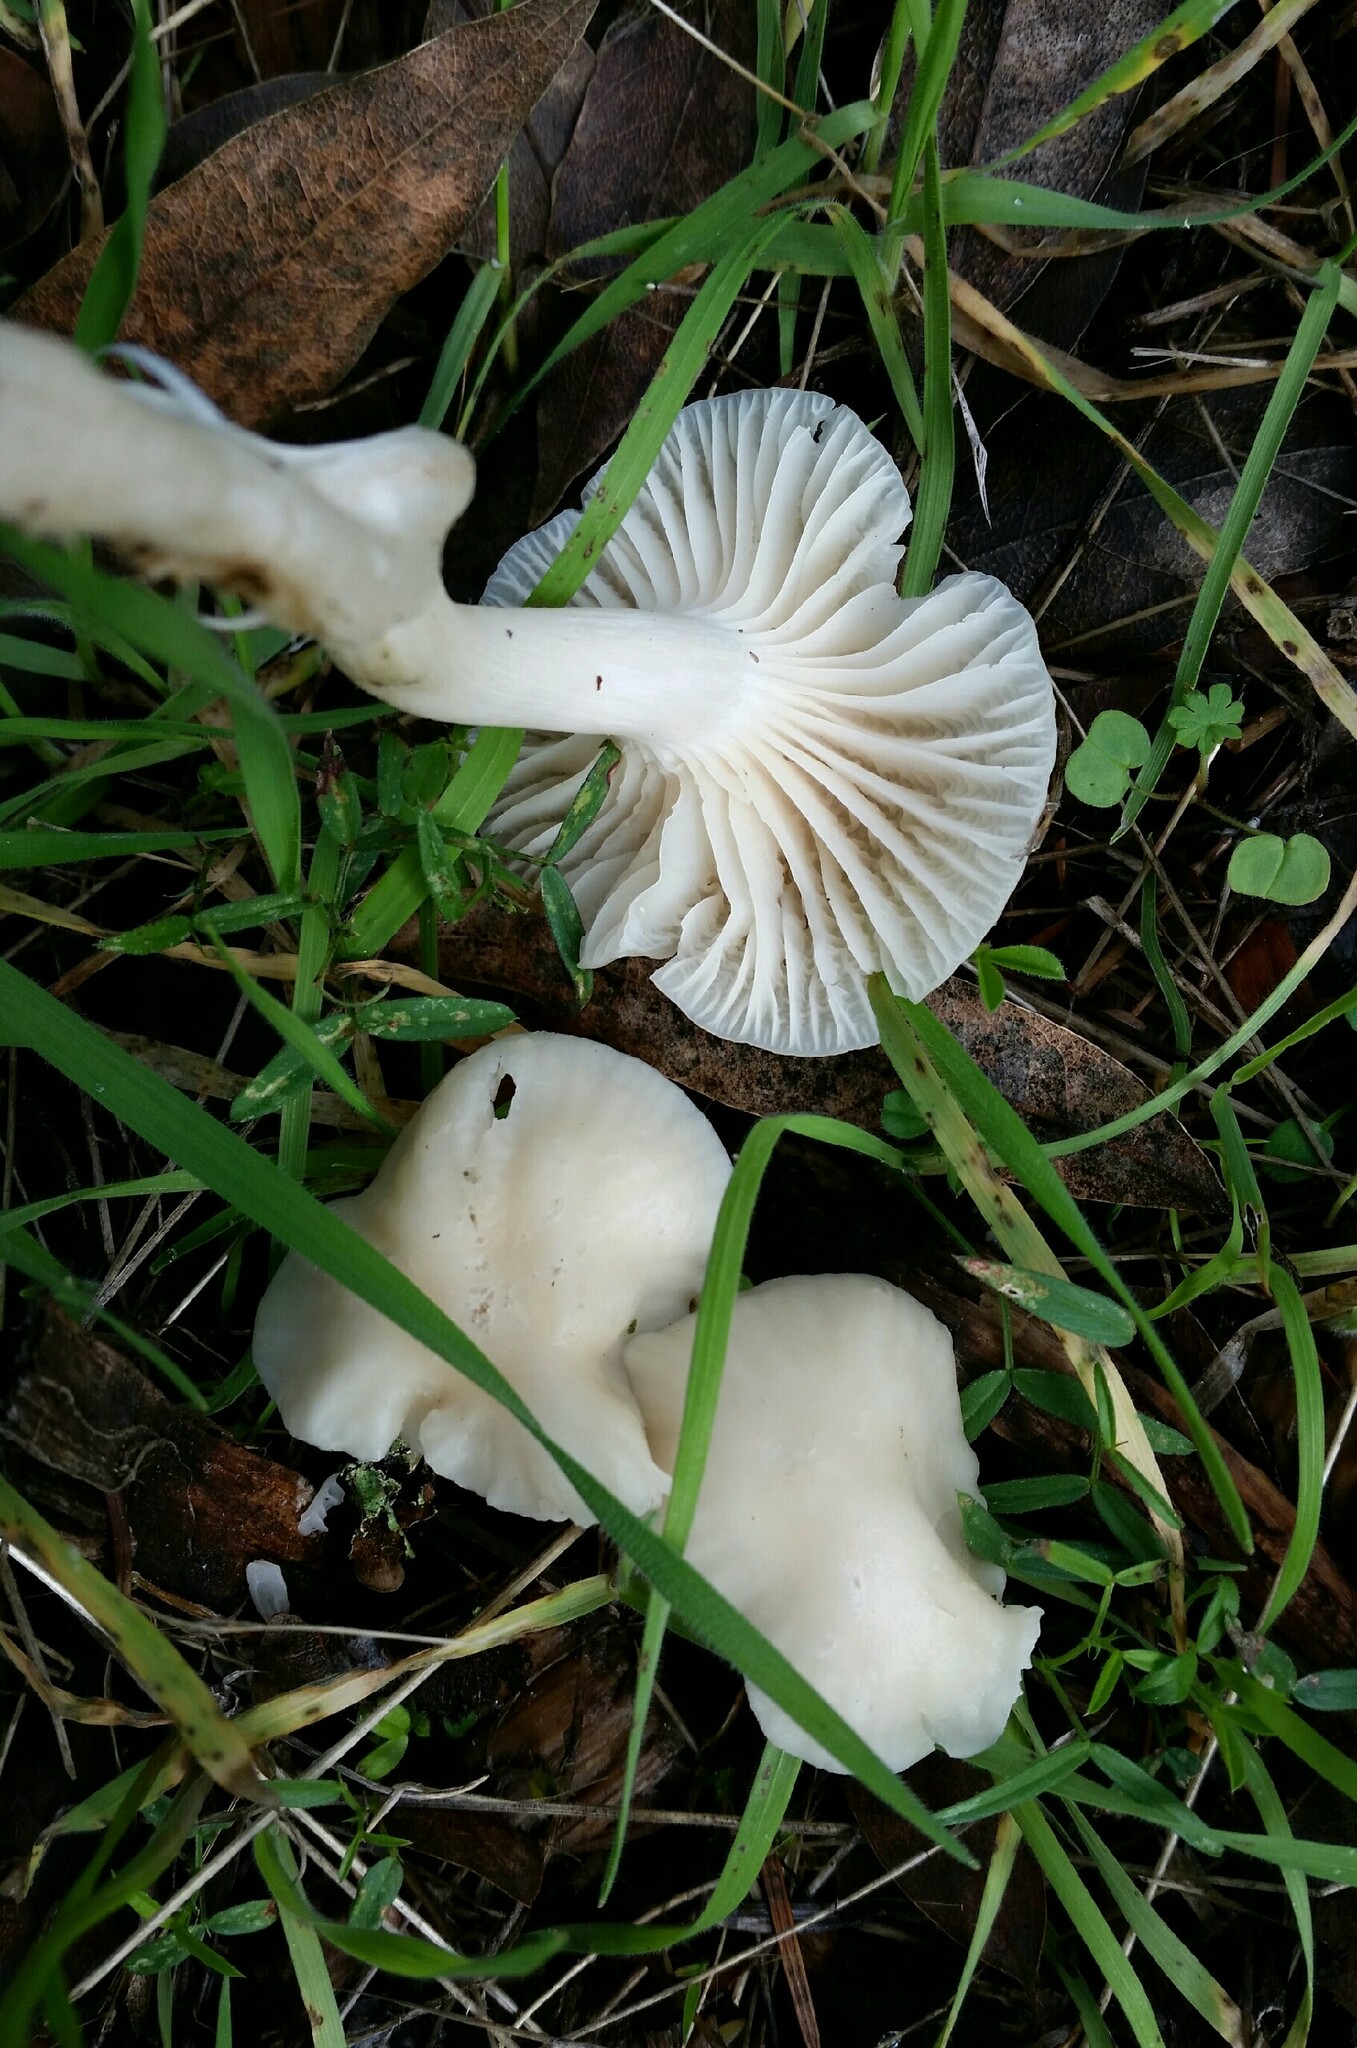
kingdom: Fungi
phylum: Basidiomycota
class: Agaricomycetes
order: Agaricales
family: Hygrophoraceae
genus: Cuphophyllus
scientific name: Cuphophyllus virgineus
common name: Snowy waxcap
